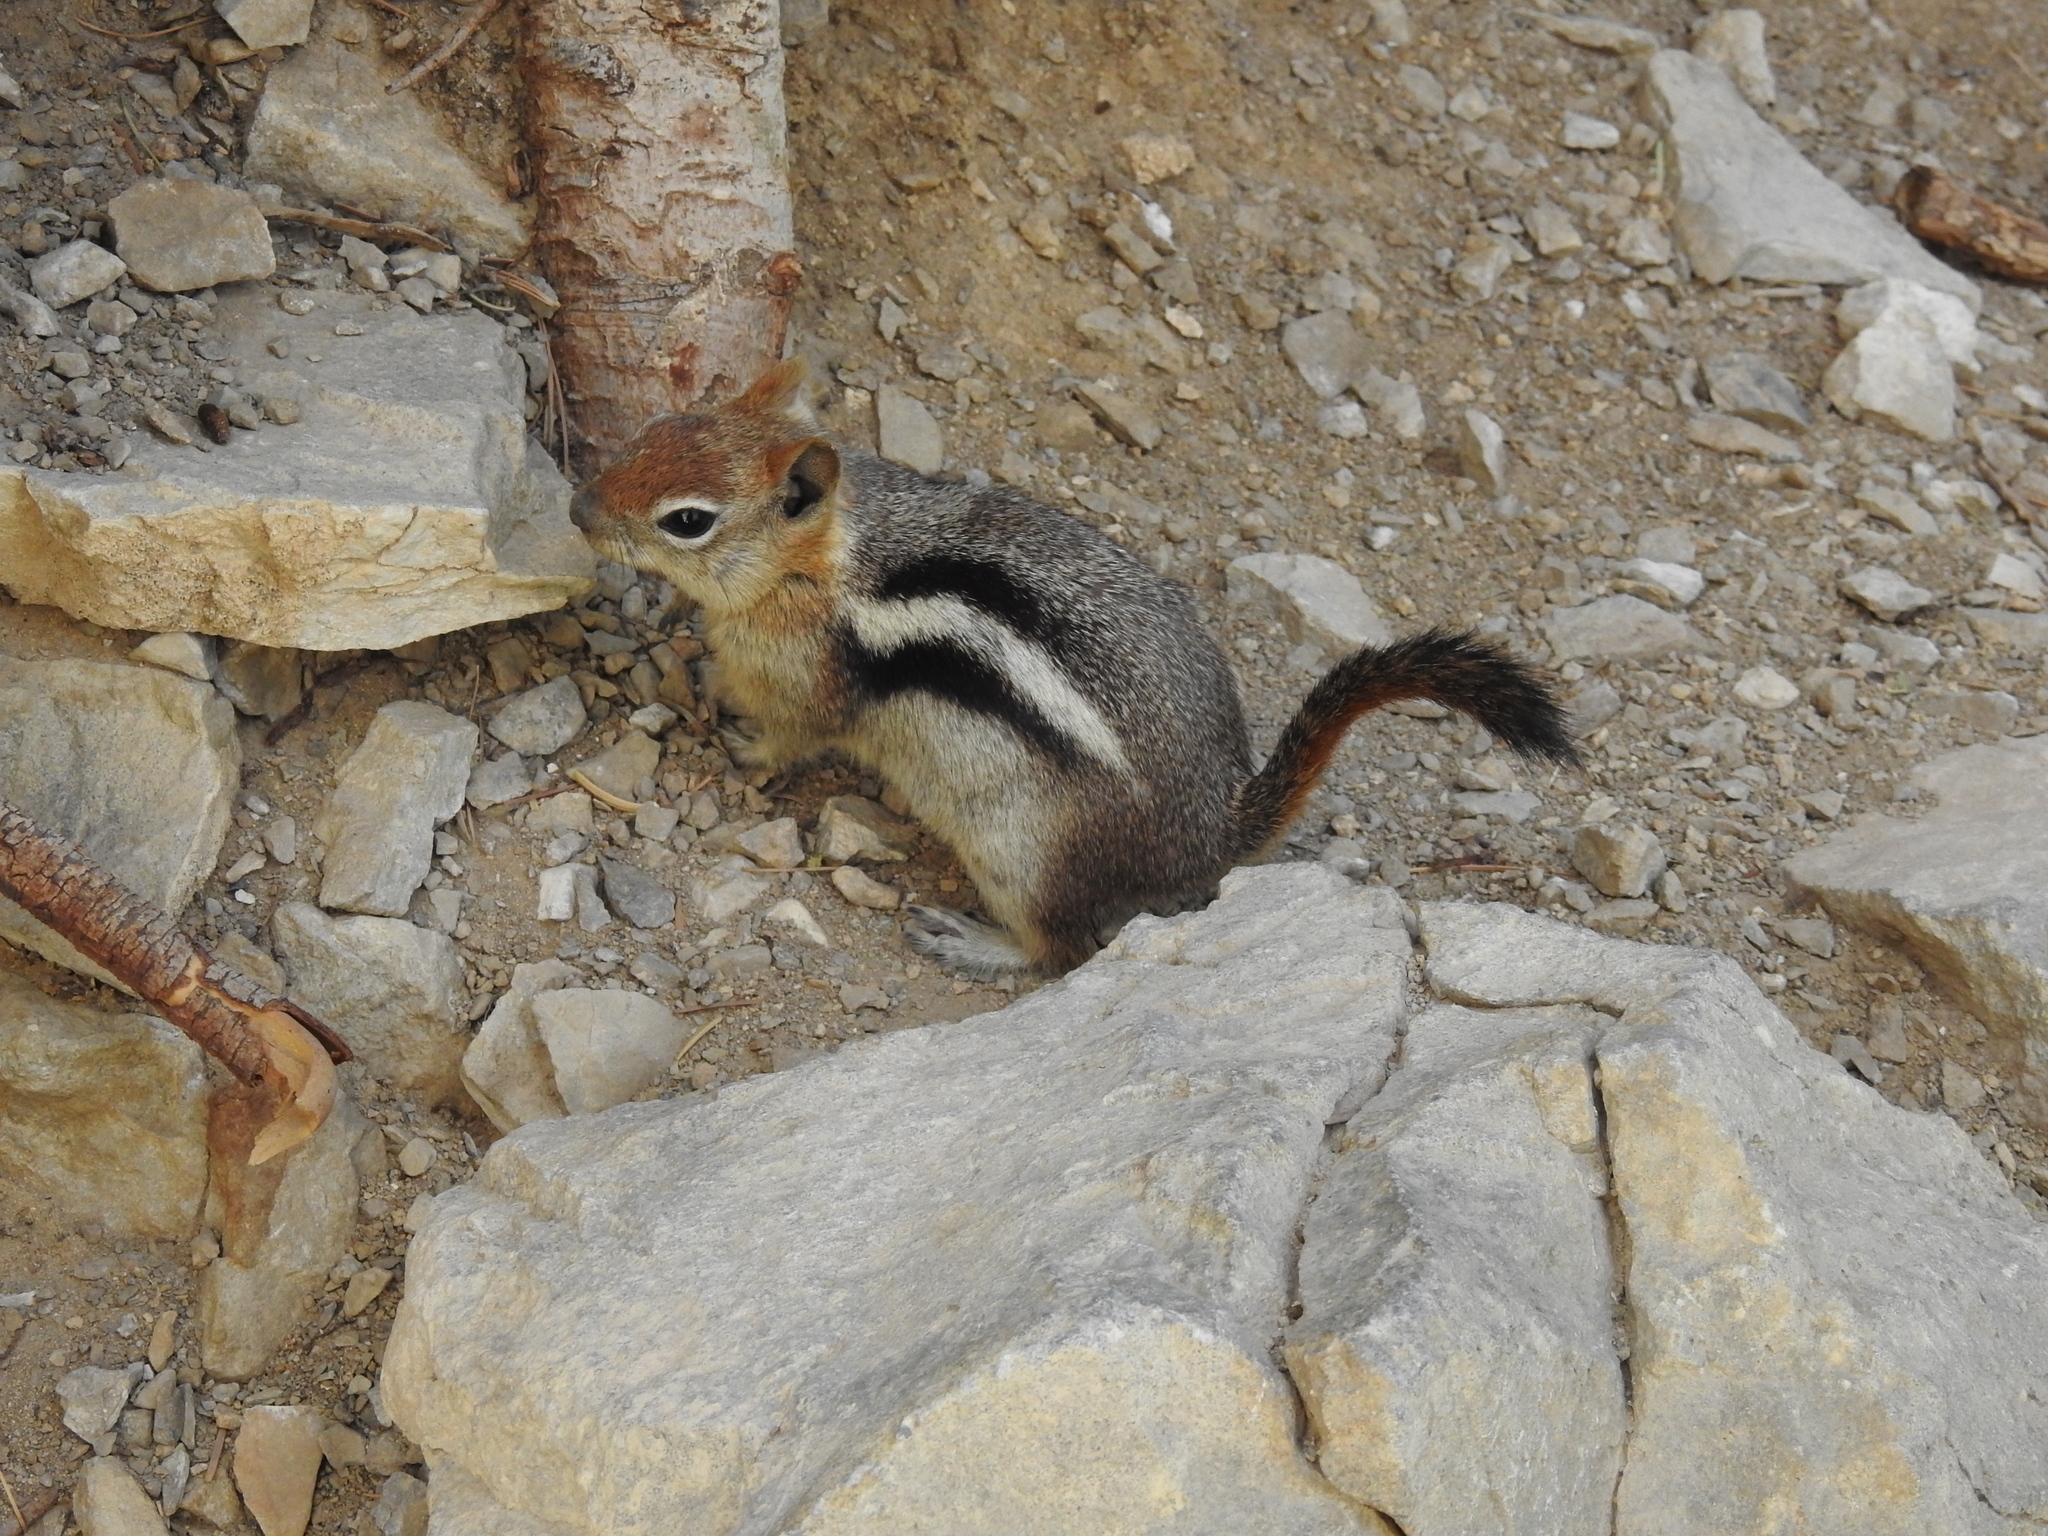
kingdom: Animalia
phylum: Chordata
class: Mammalia
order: Rodentia
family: Sciuridae
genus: Callospermophilus
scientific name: Callospermophilus lateralis
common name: Golden-mantled ground squirrel
